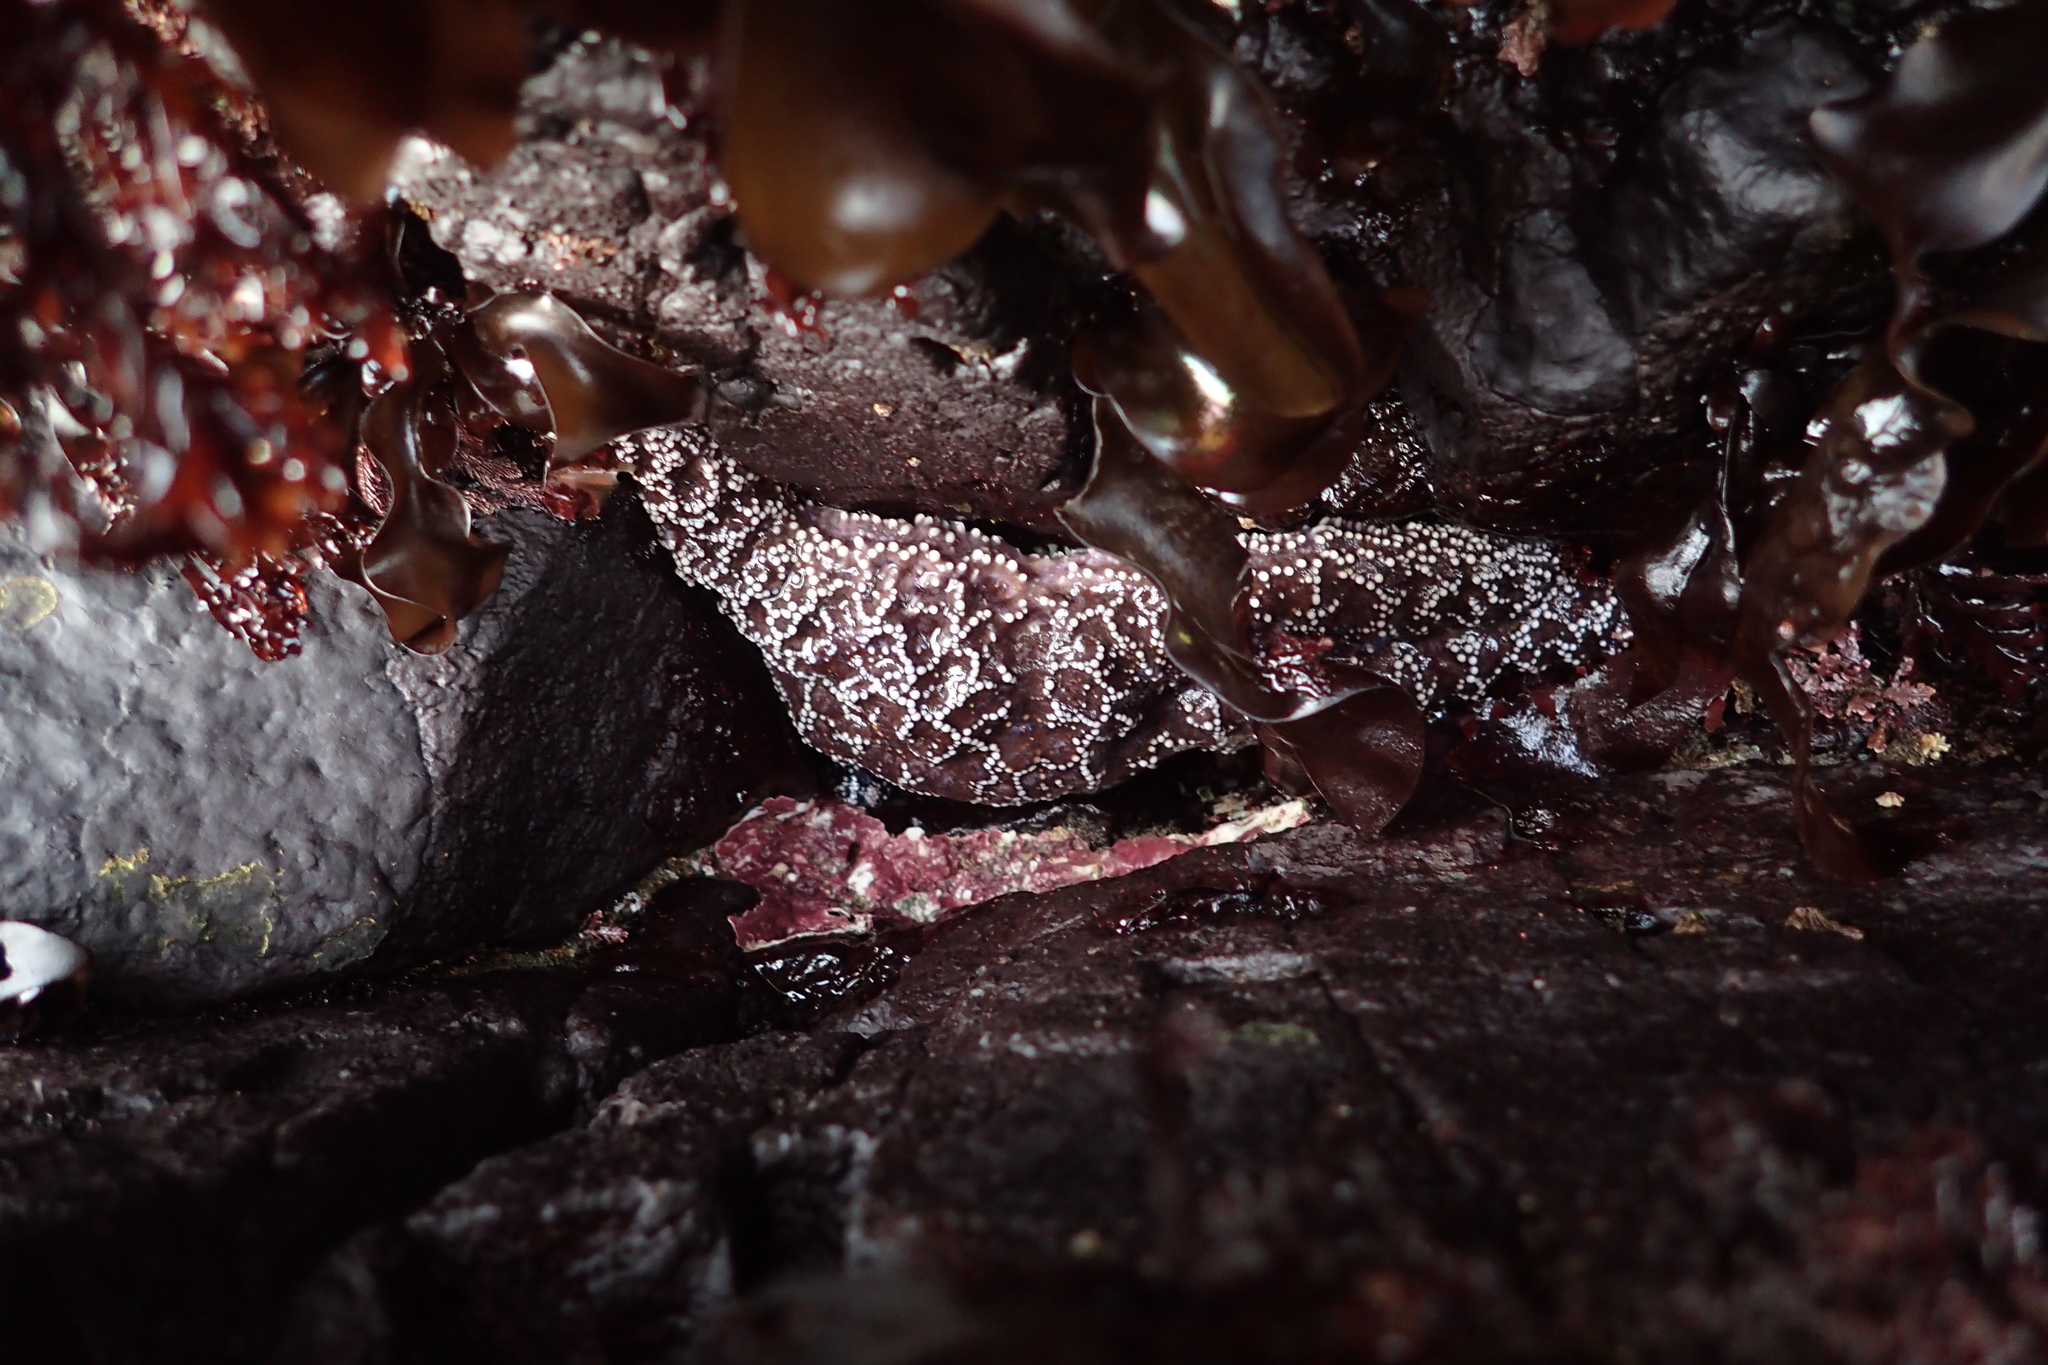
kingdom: Animalia
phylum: Echinodermata
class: Asteroidea
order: Forcipulatida
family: Asteriidae
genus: Pisaster
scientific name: Pisaster ochraceus
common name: Ochre stars
